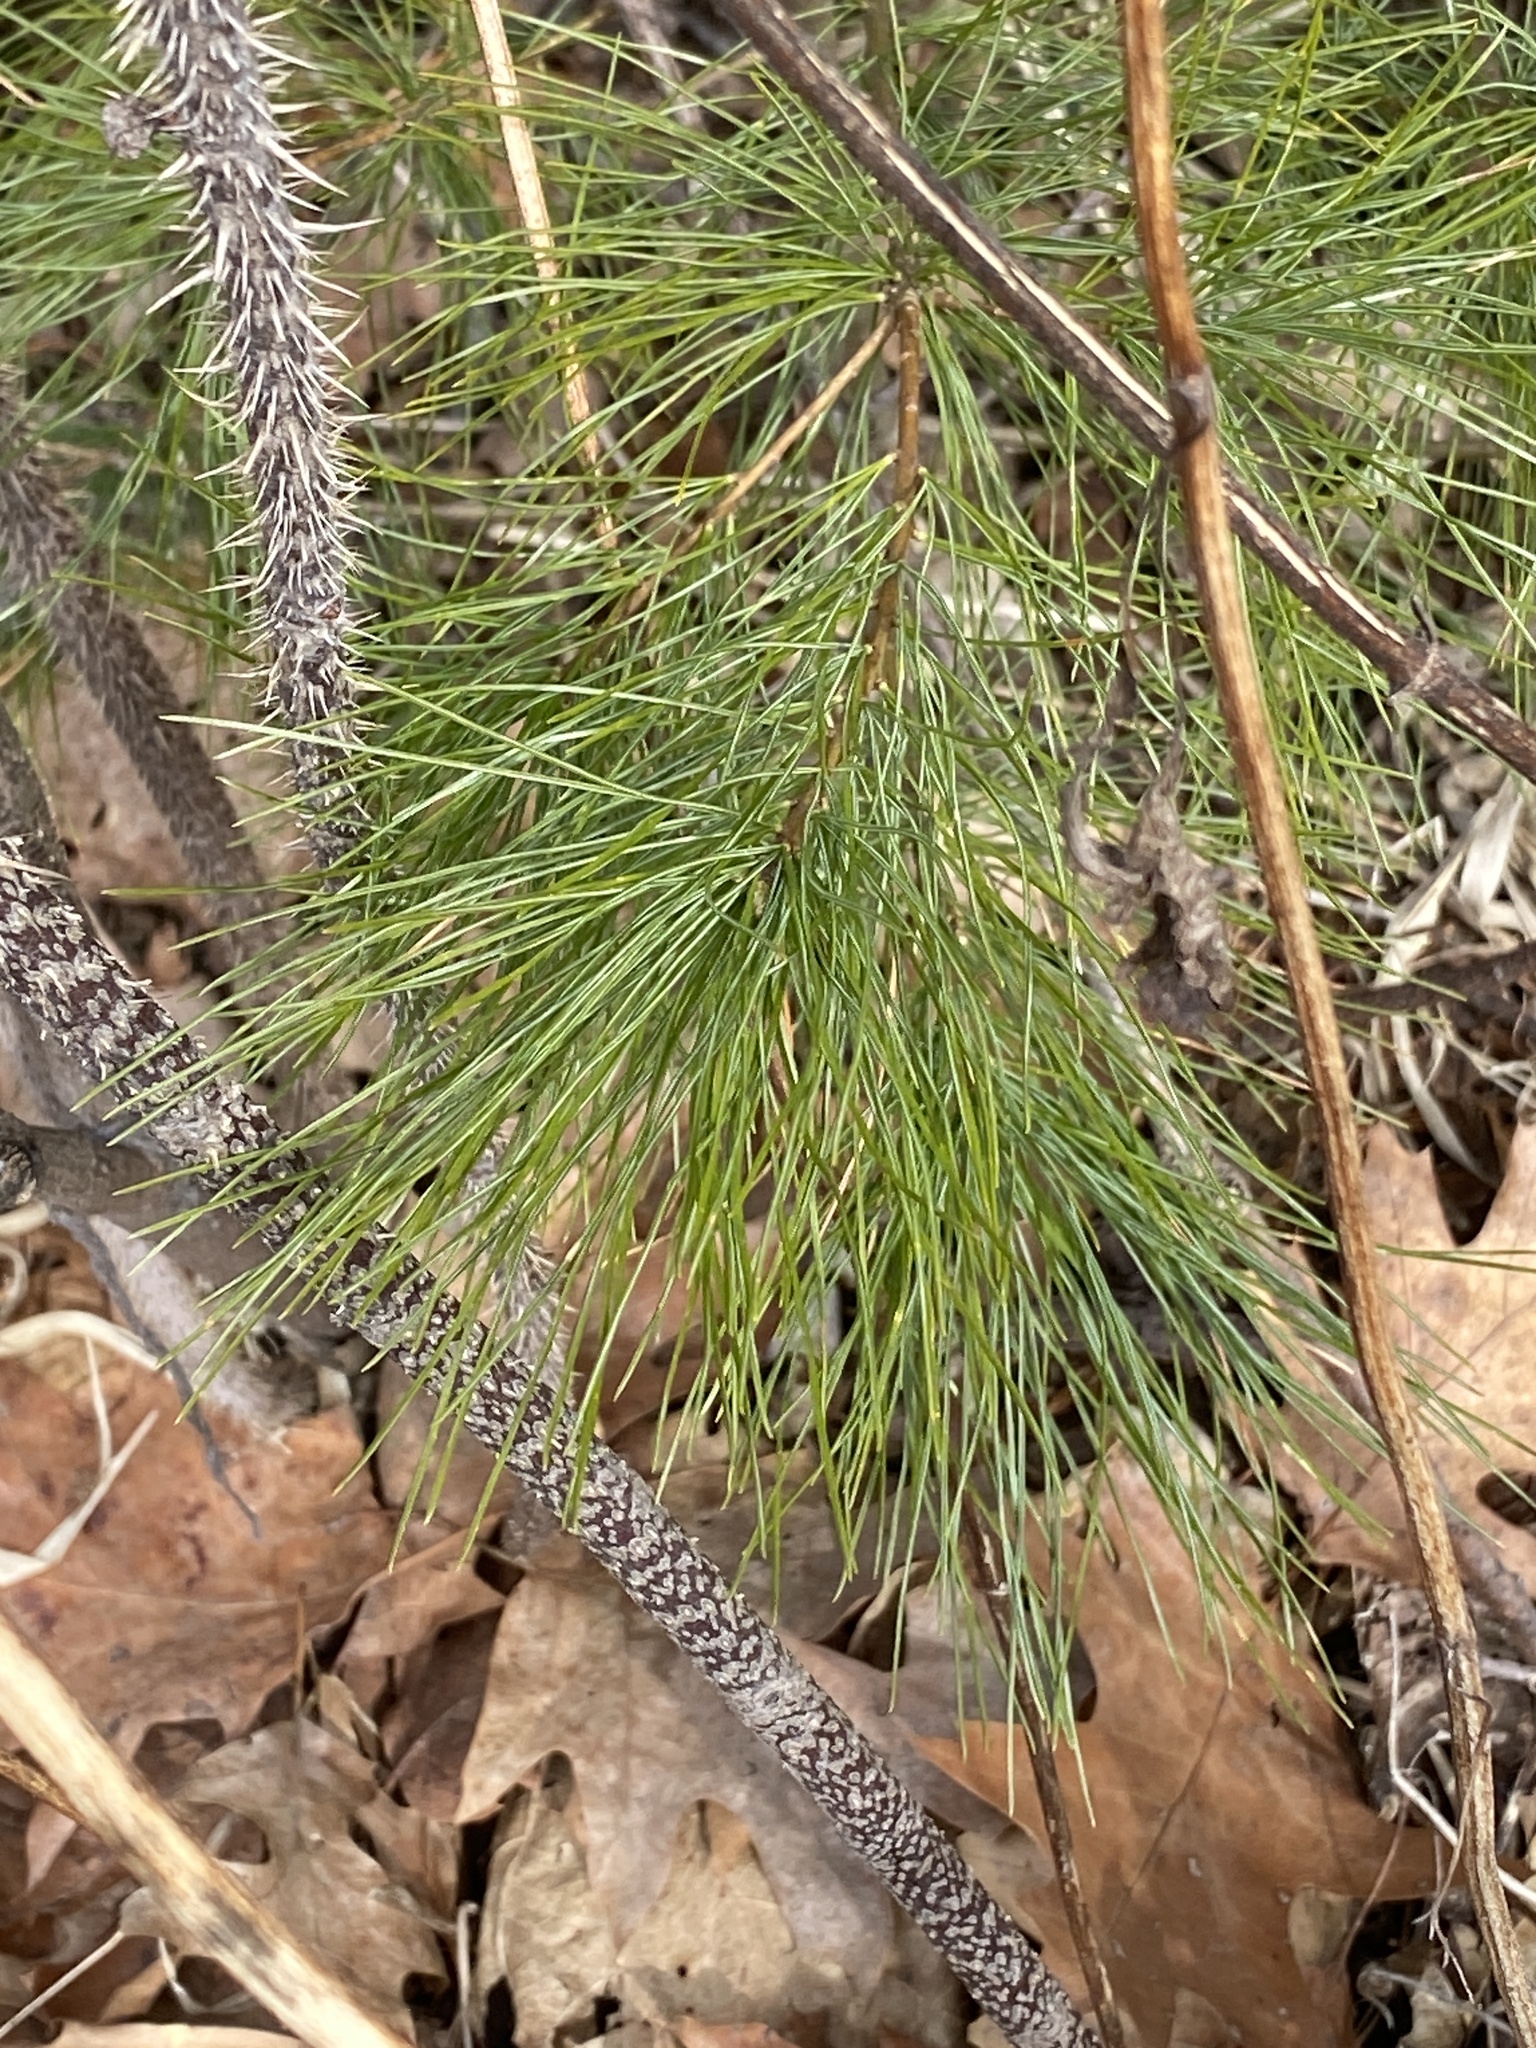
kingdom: Plantae
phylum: Tracheophyta
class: Pinopsida
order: Pinales
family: Pinaceae
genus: Pinus
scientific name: Pinus strobus
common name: Weymouth pine
